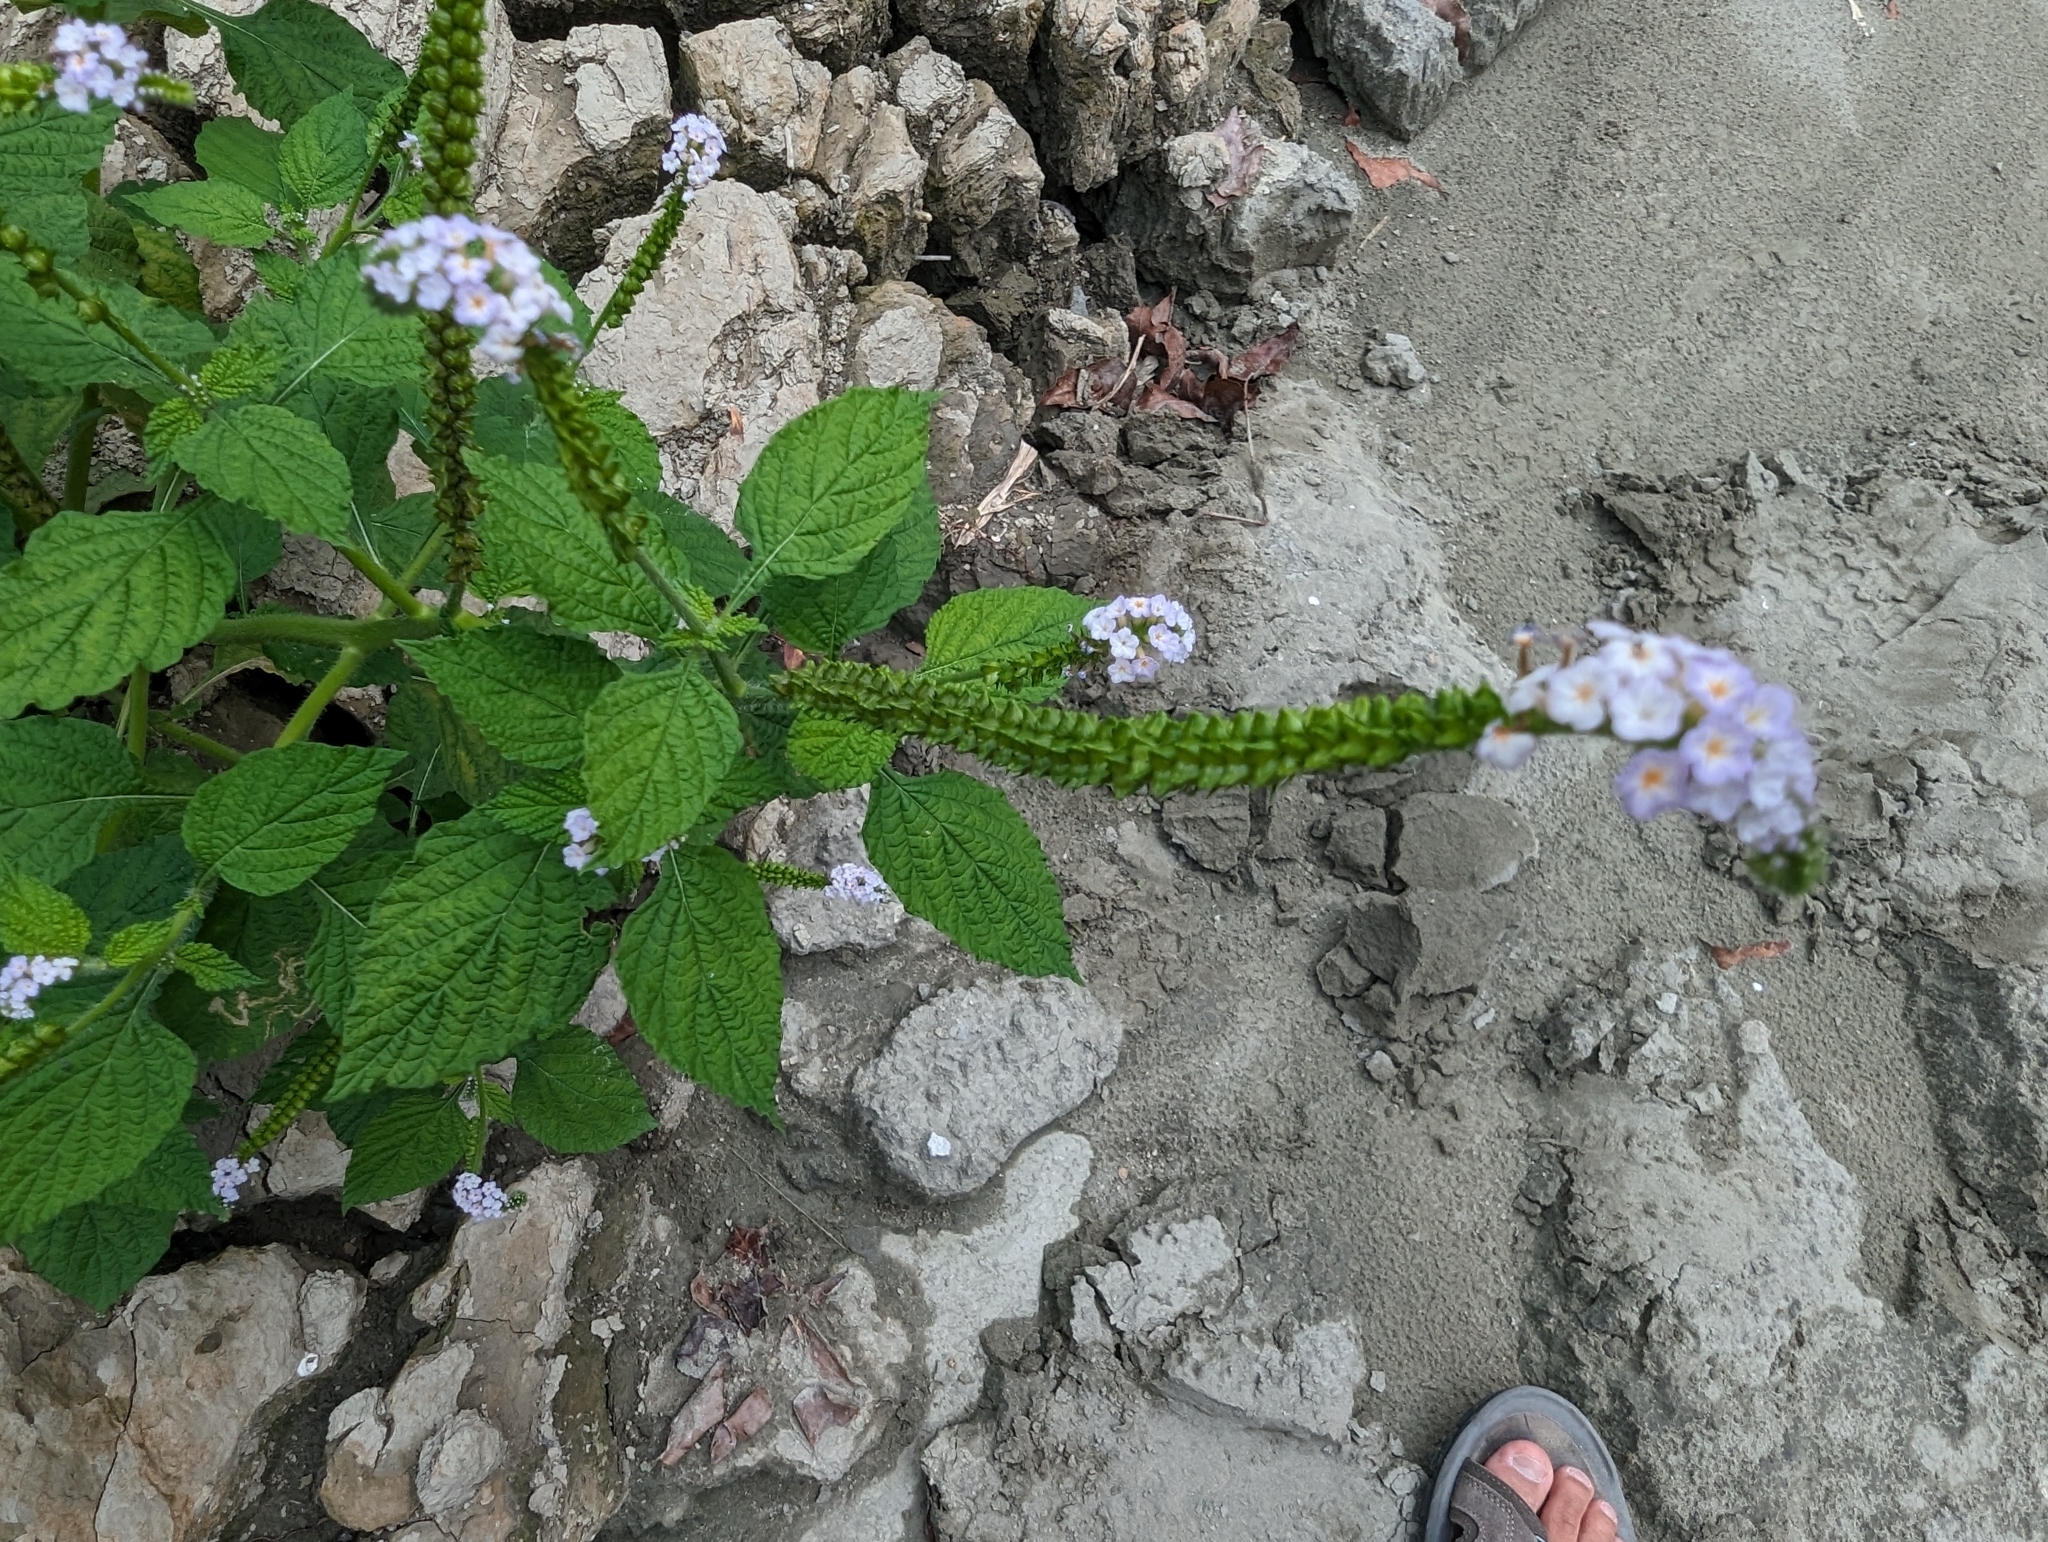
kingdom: Plantae
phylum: Tracheophyta
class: Magnoliopsida
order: Boraginales
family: Heliotropiaceae
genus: Heliotropium
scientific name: Heliotropium indicum
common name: Indian heliotrope
